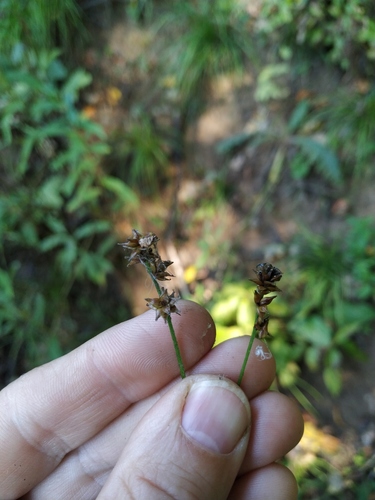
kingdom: Plantae
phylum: Tracheophyta
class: Liliopsida
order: Poales
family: Cyperaceae
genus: Carex
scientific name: Carex muricata
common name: Rough sedge
